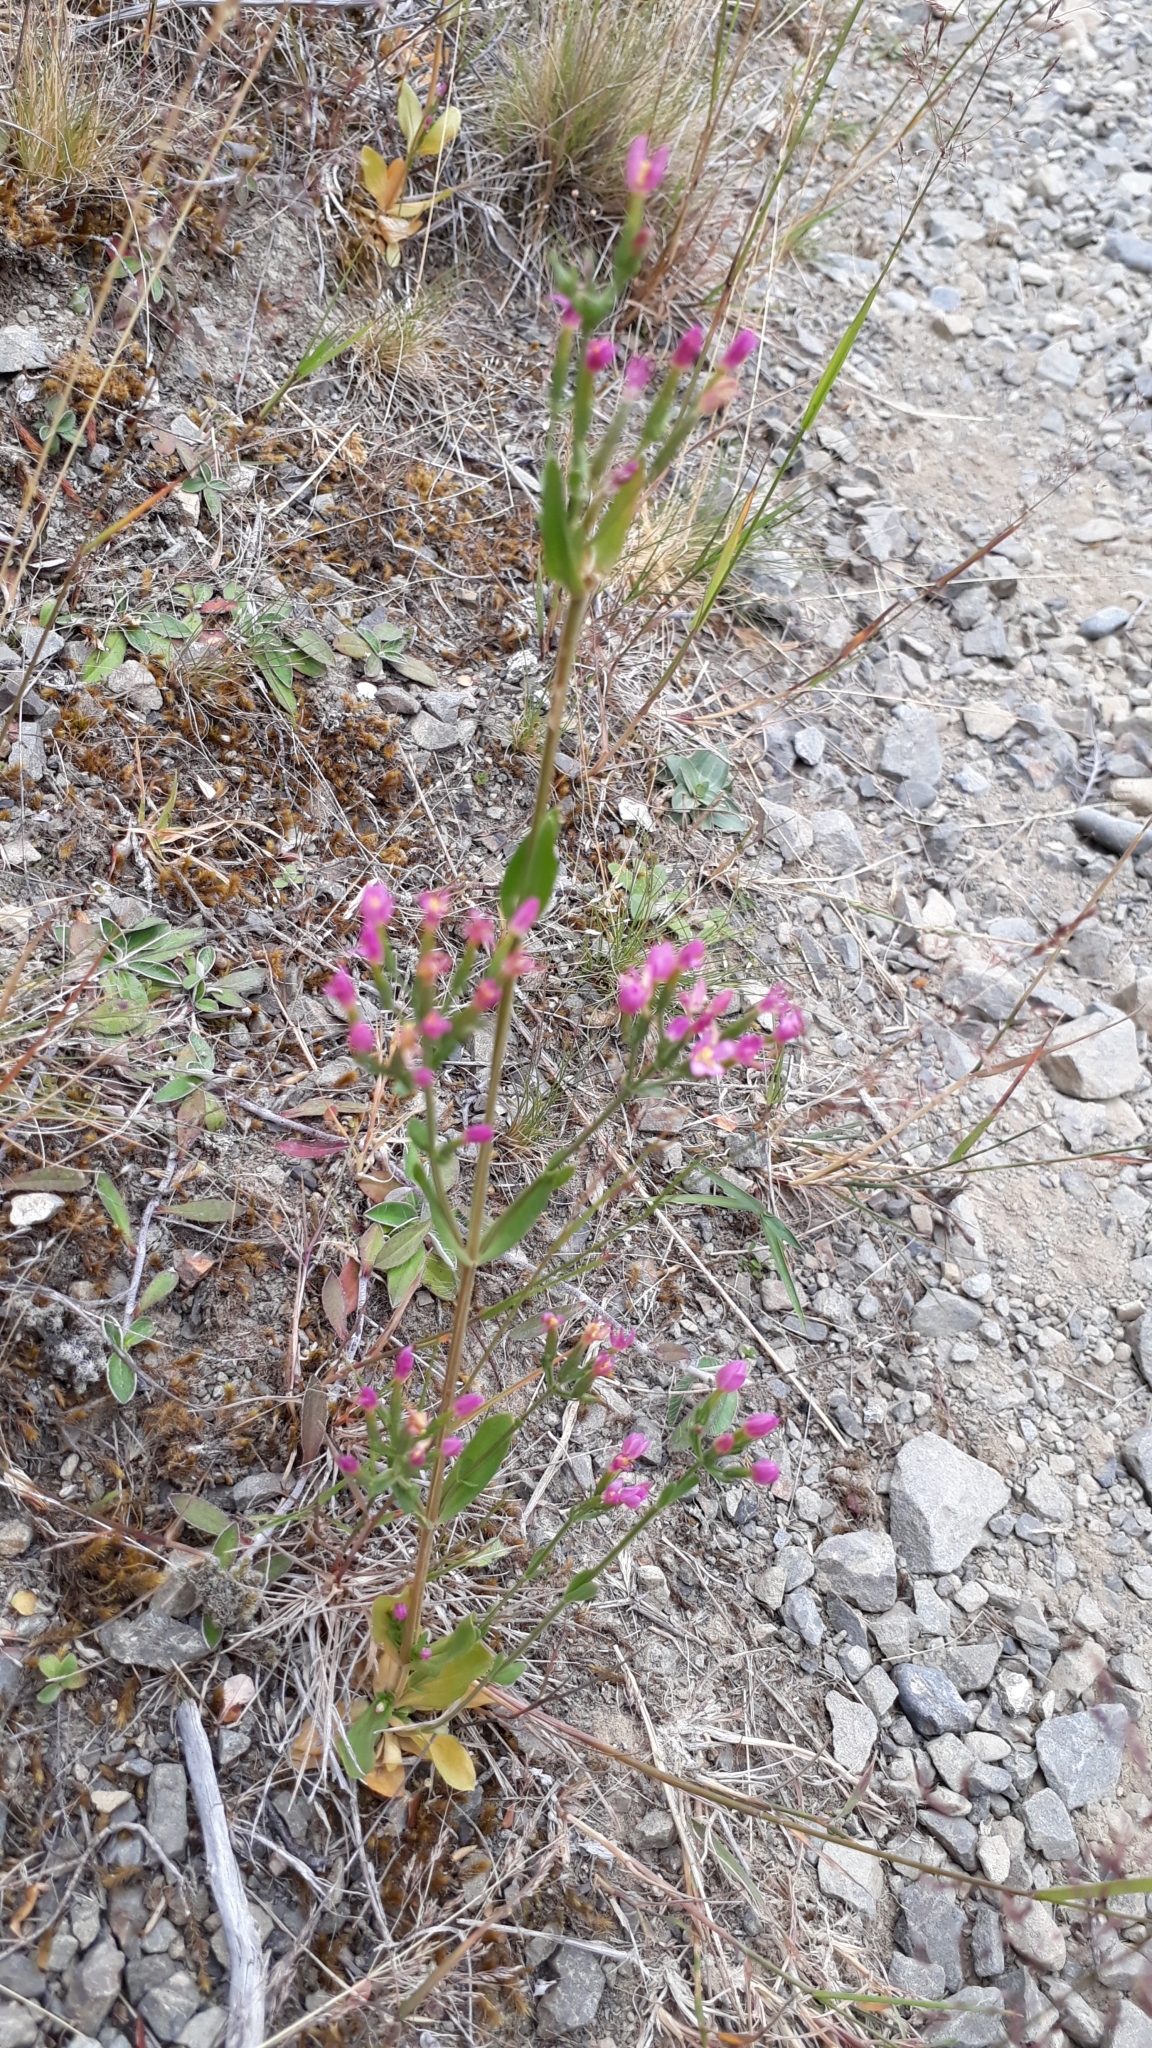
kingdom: Plantae
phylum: Tracheophyta
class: Magnoliopsida
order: Gentianales
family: Gentianaceae
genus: Centaurium
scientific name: Centaurium erythraea
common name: Common centaury
